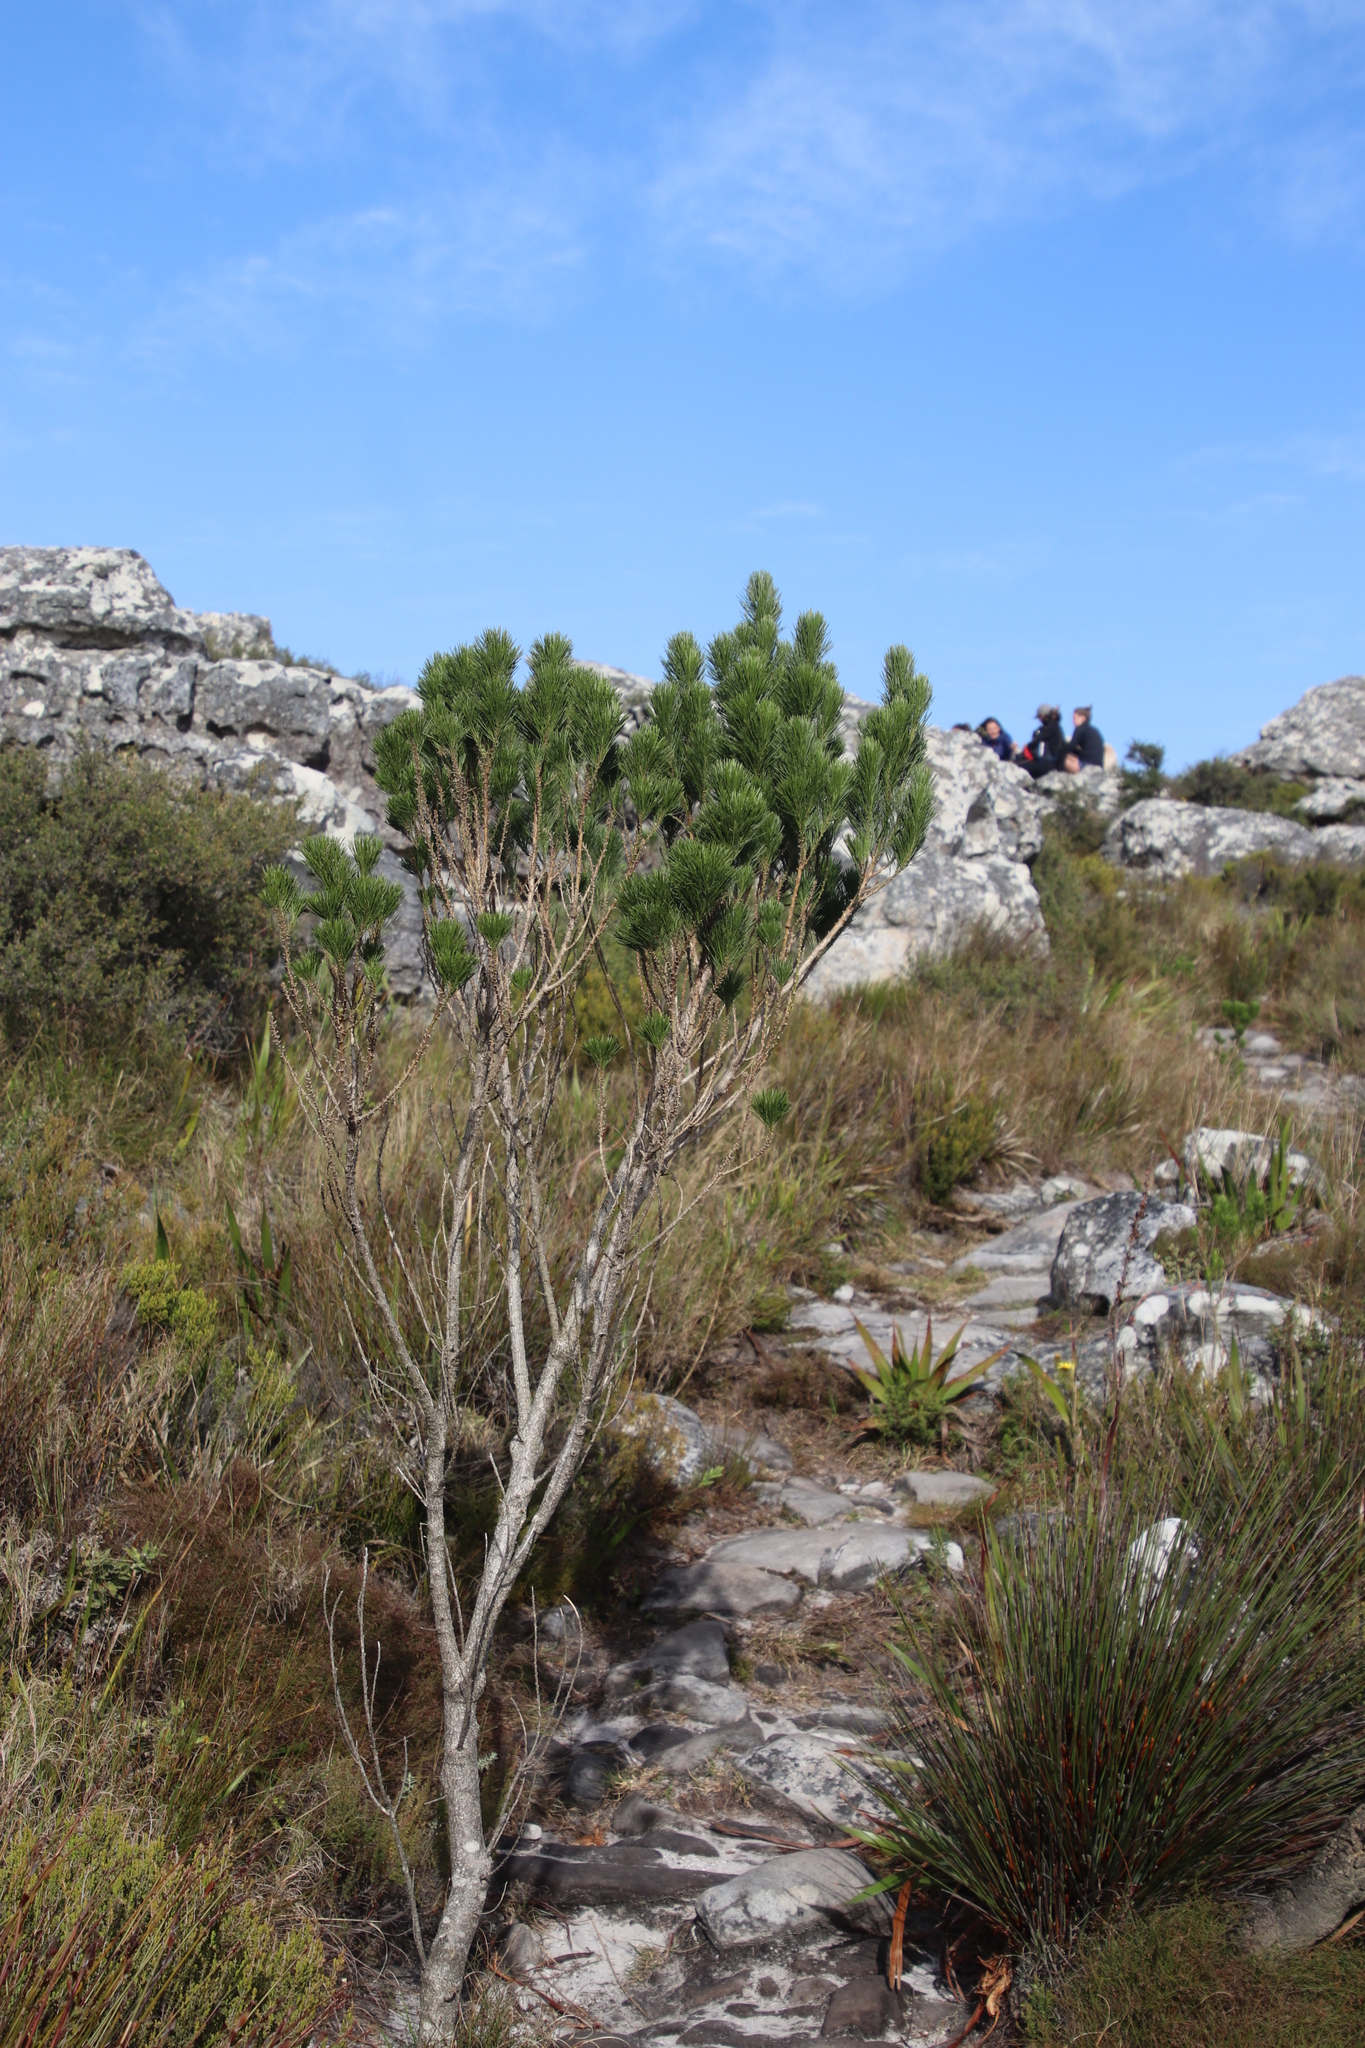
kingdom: Plantae
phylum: Tracheophyta
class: Magnoliopsida
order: Fabales
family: Fabaceae
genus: Psoralea
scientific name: Psoralea pinnata
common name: African scurfpea
